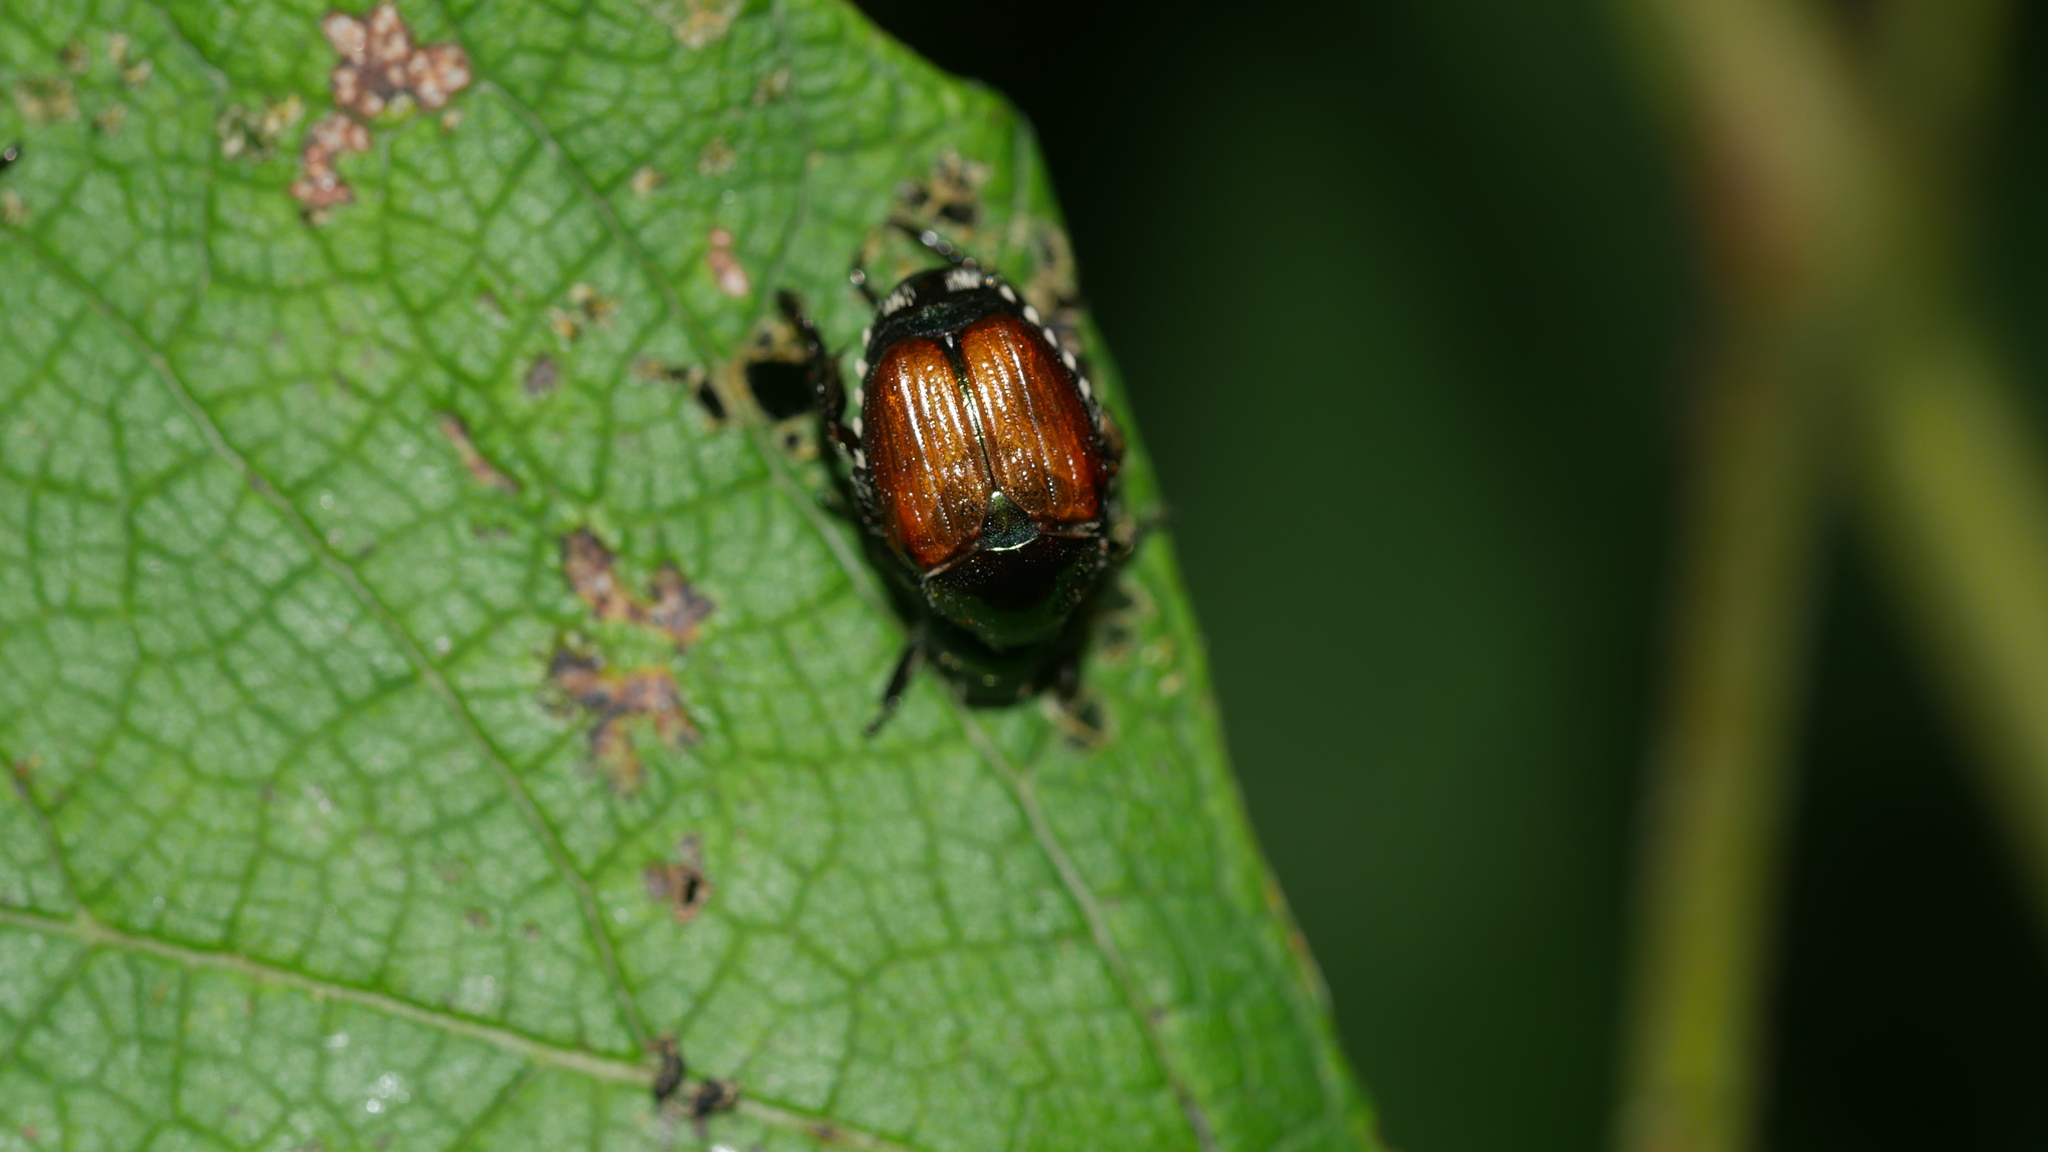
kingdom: Animalia
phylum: Arthropoda
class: Insecta
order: Coleoptera
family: Scarabaeidae
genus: Popillia
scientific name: Popillia japonica
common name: Japanese beetle
